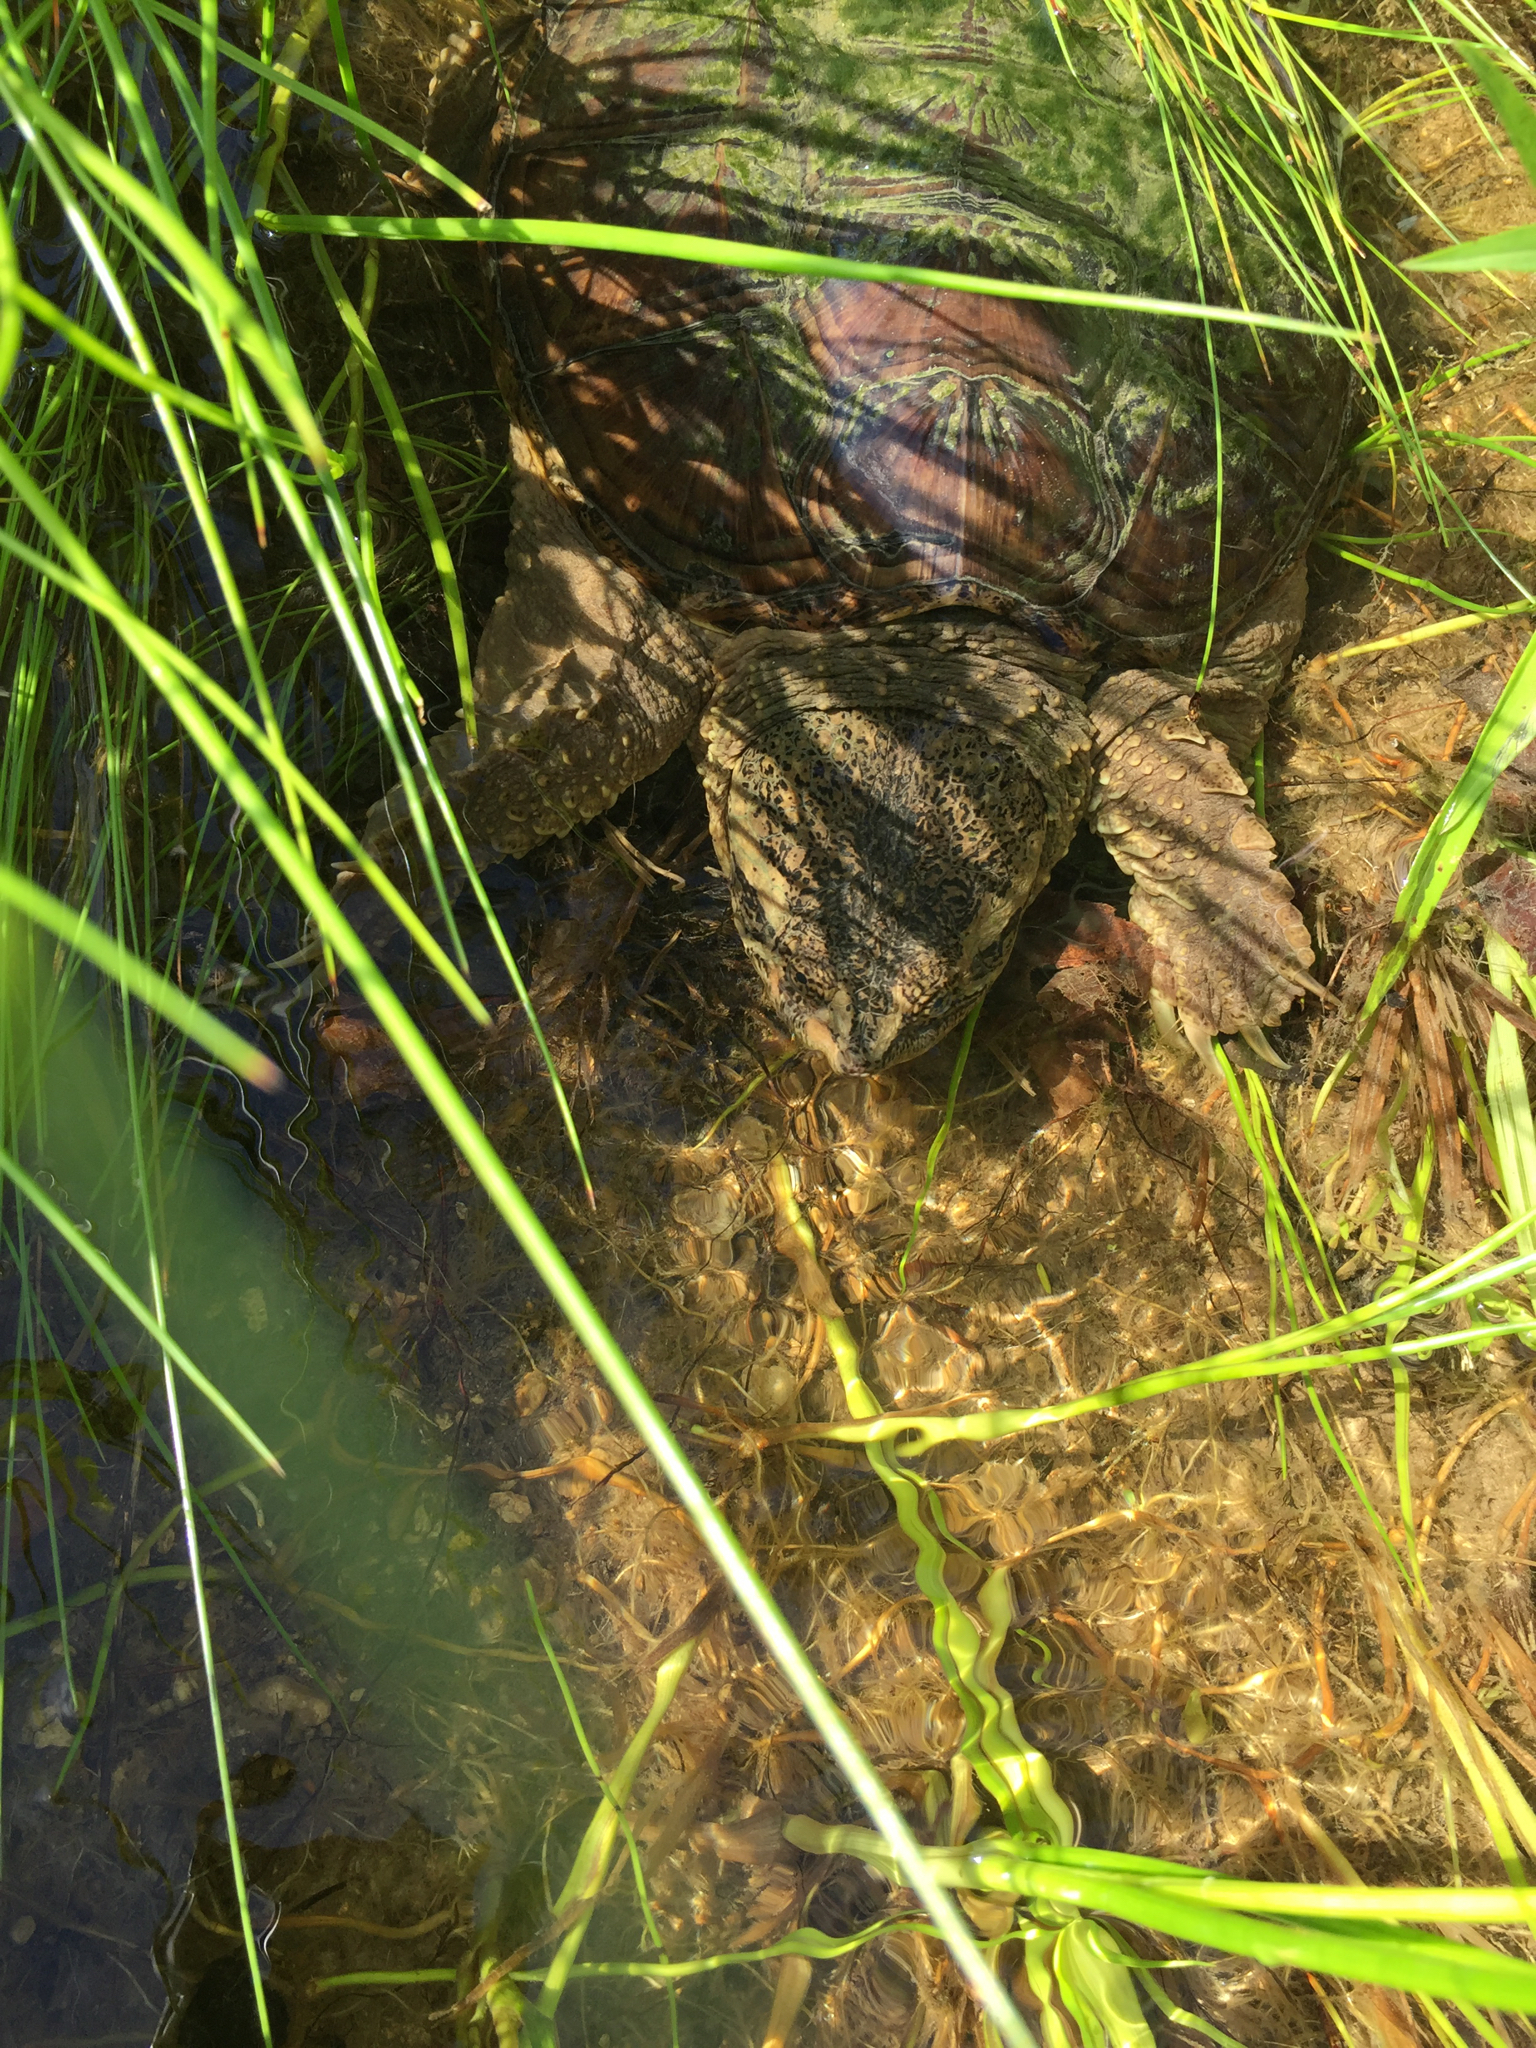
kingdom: Animalia
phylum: Chordata
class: Testudines
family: Chelydridae
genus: Chelydra
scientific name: Chelydra serpentina
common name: Common snapping turtle
